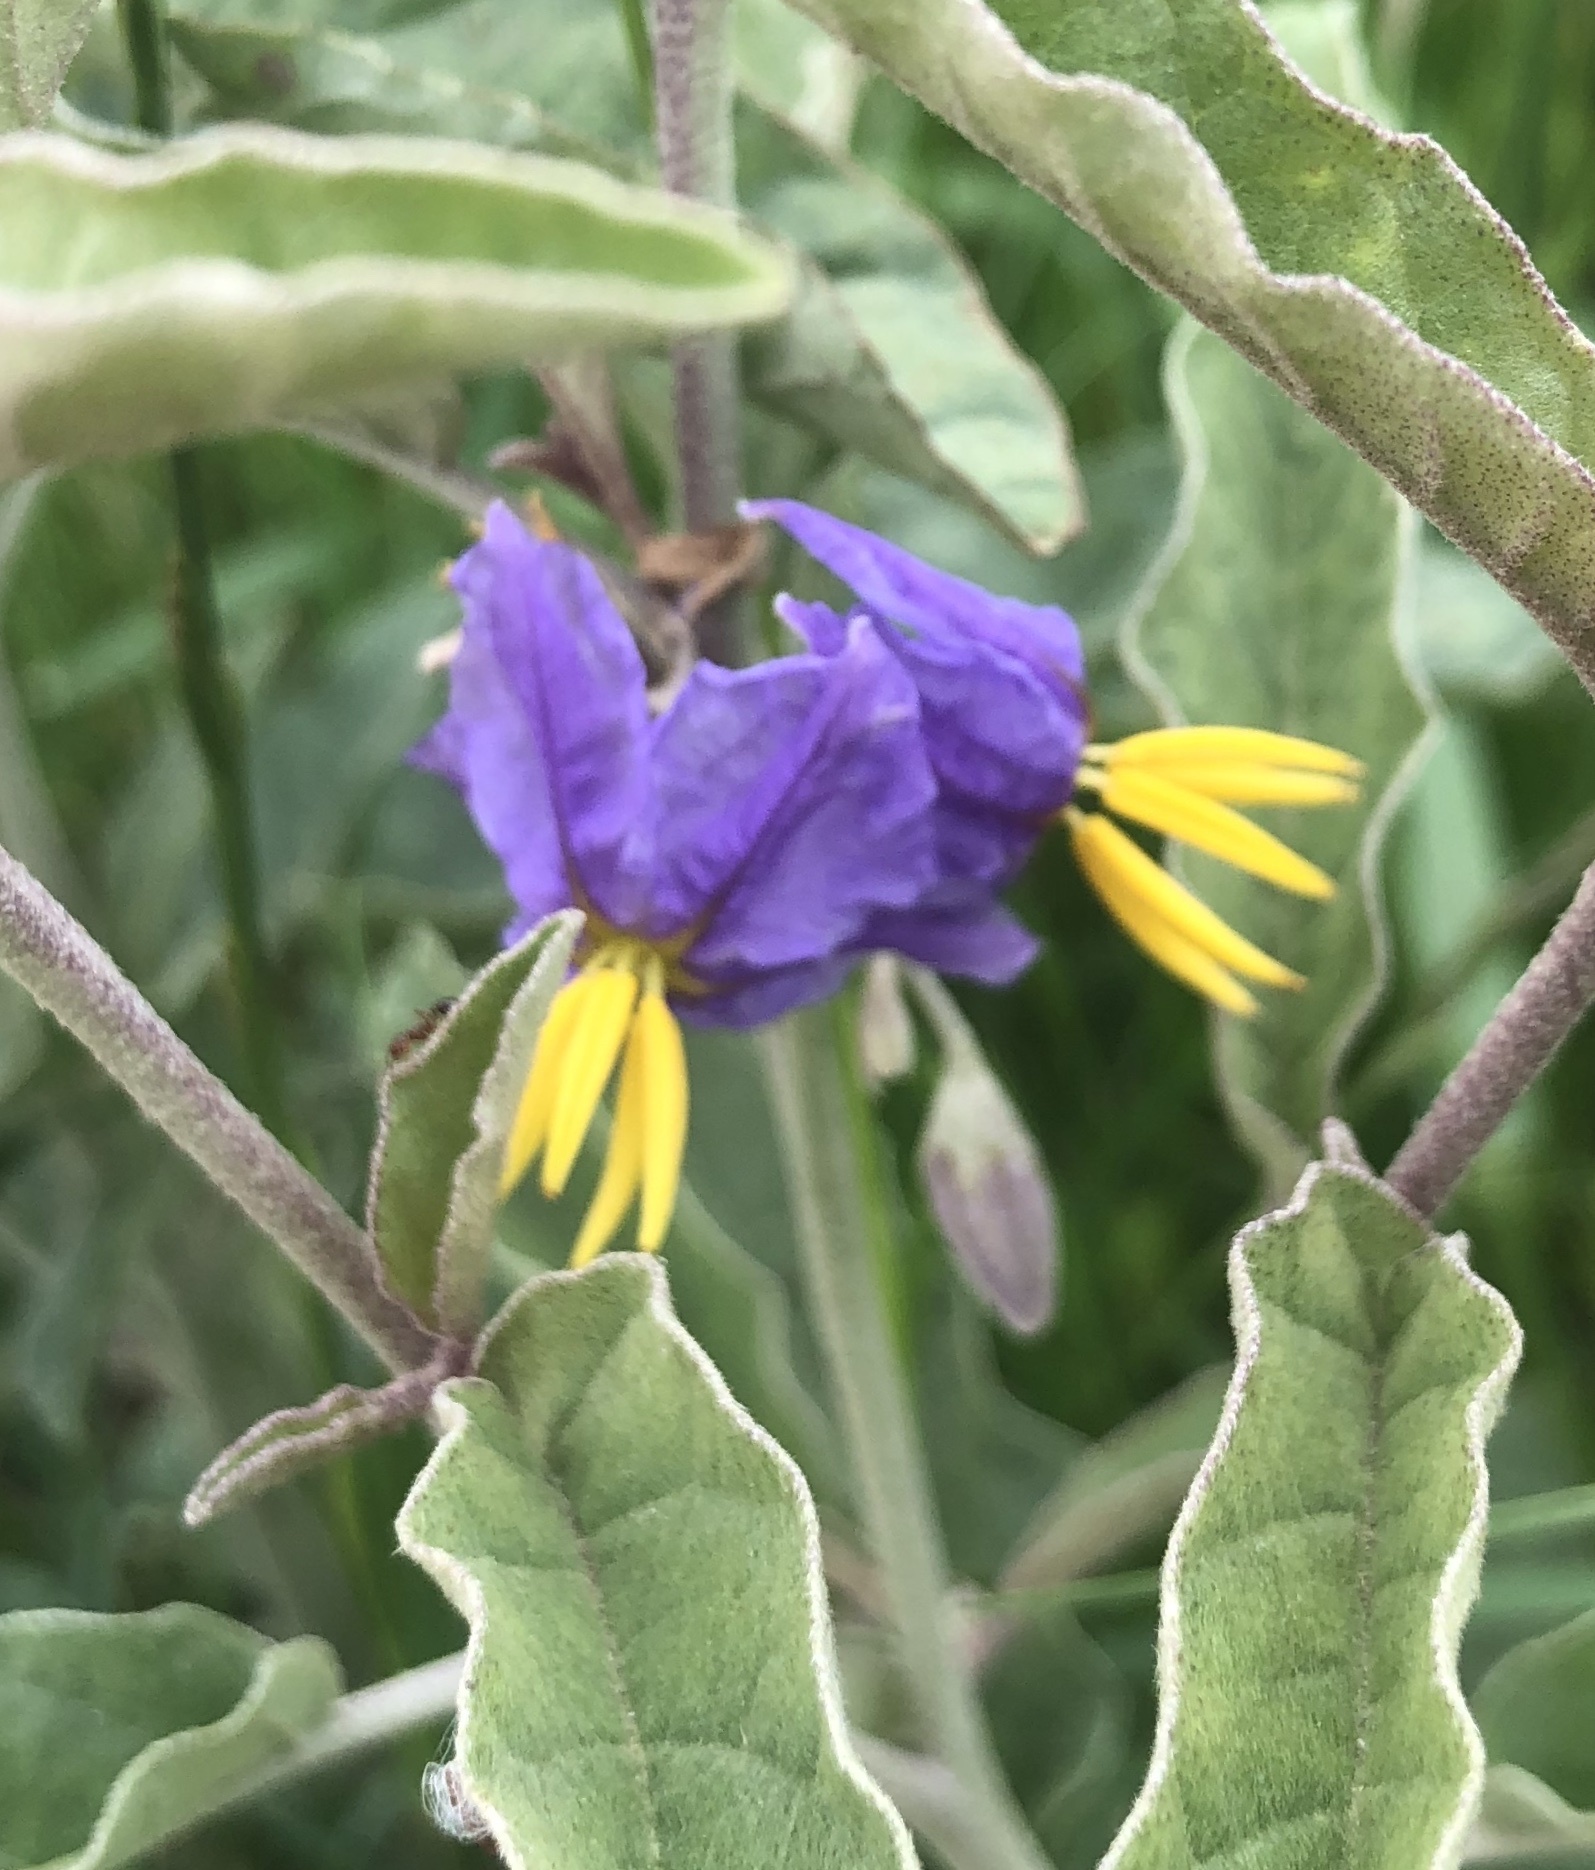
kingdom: Plantae
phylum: Tracheophyta
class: Magnoliopsida
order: Solanales
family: Solanaceae
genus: Solanum
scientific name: Solanum elaeagnifolium
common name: Silverleaf nightshade
